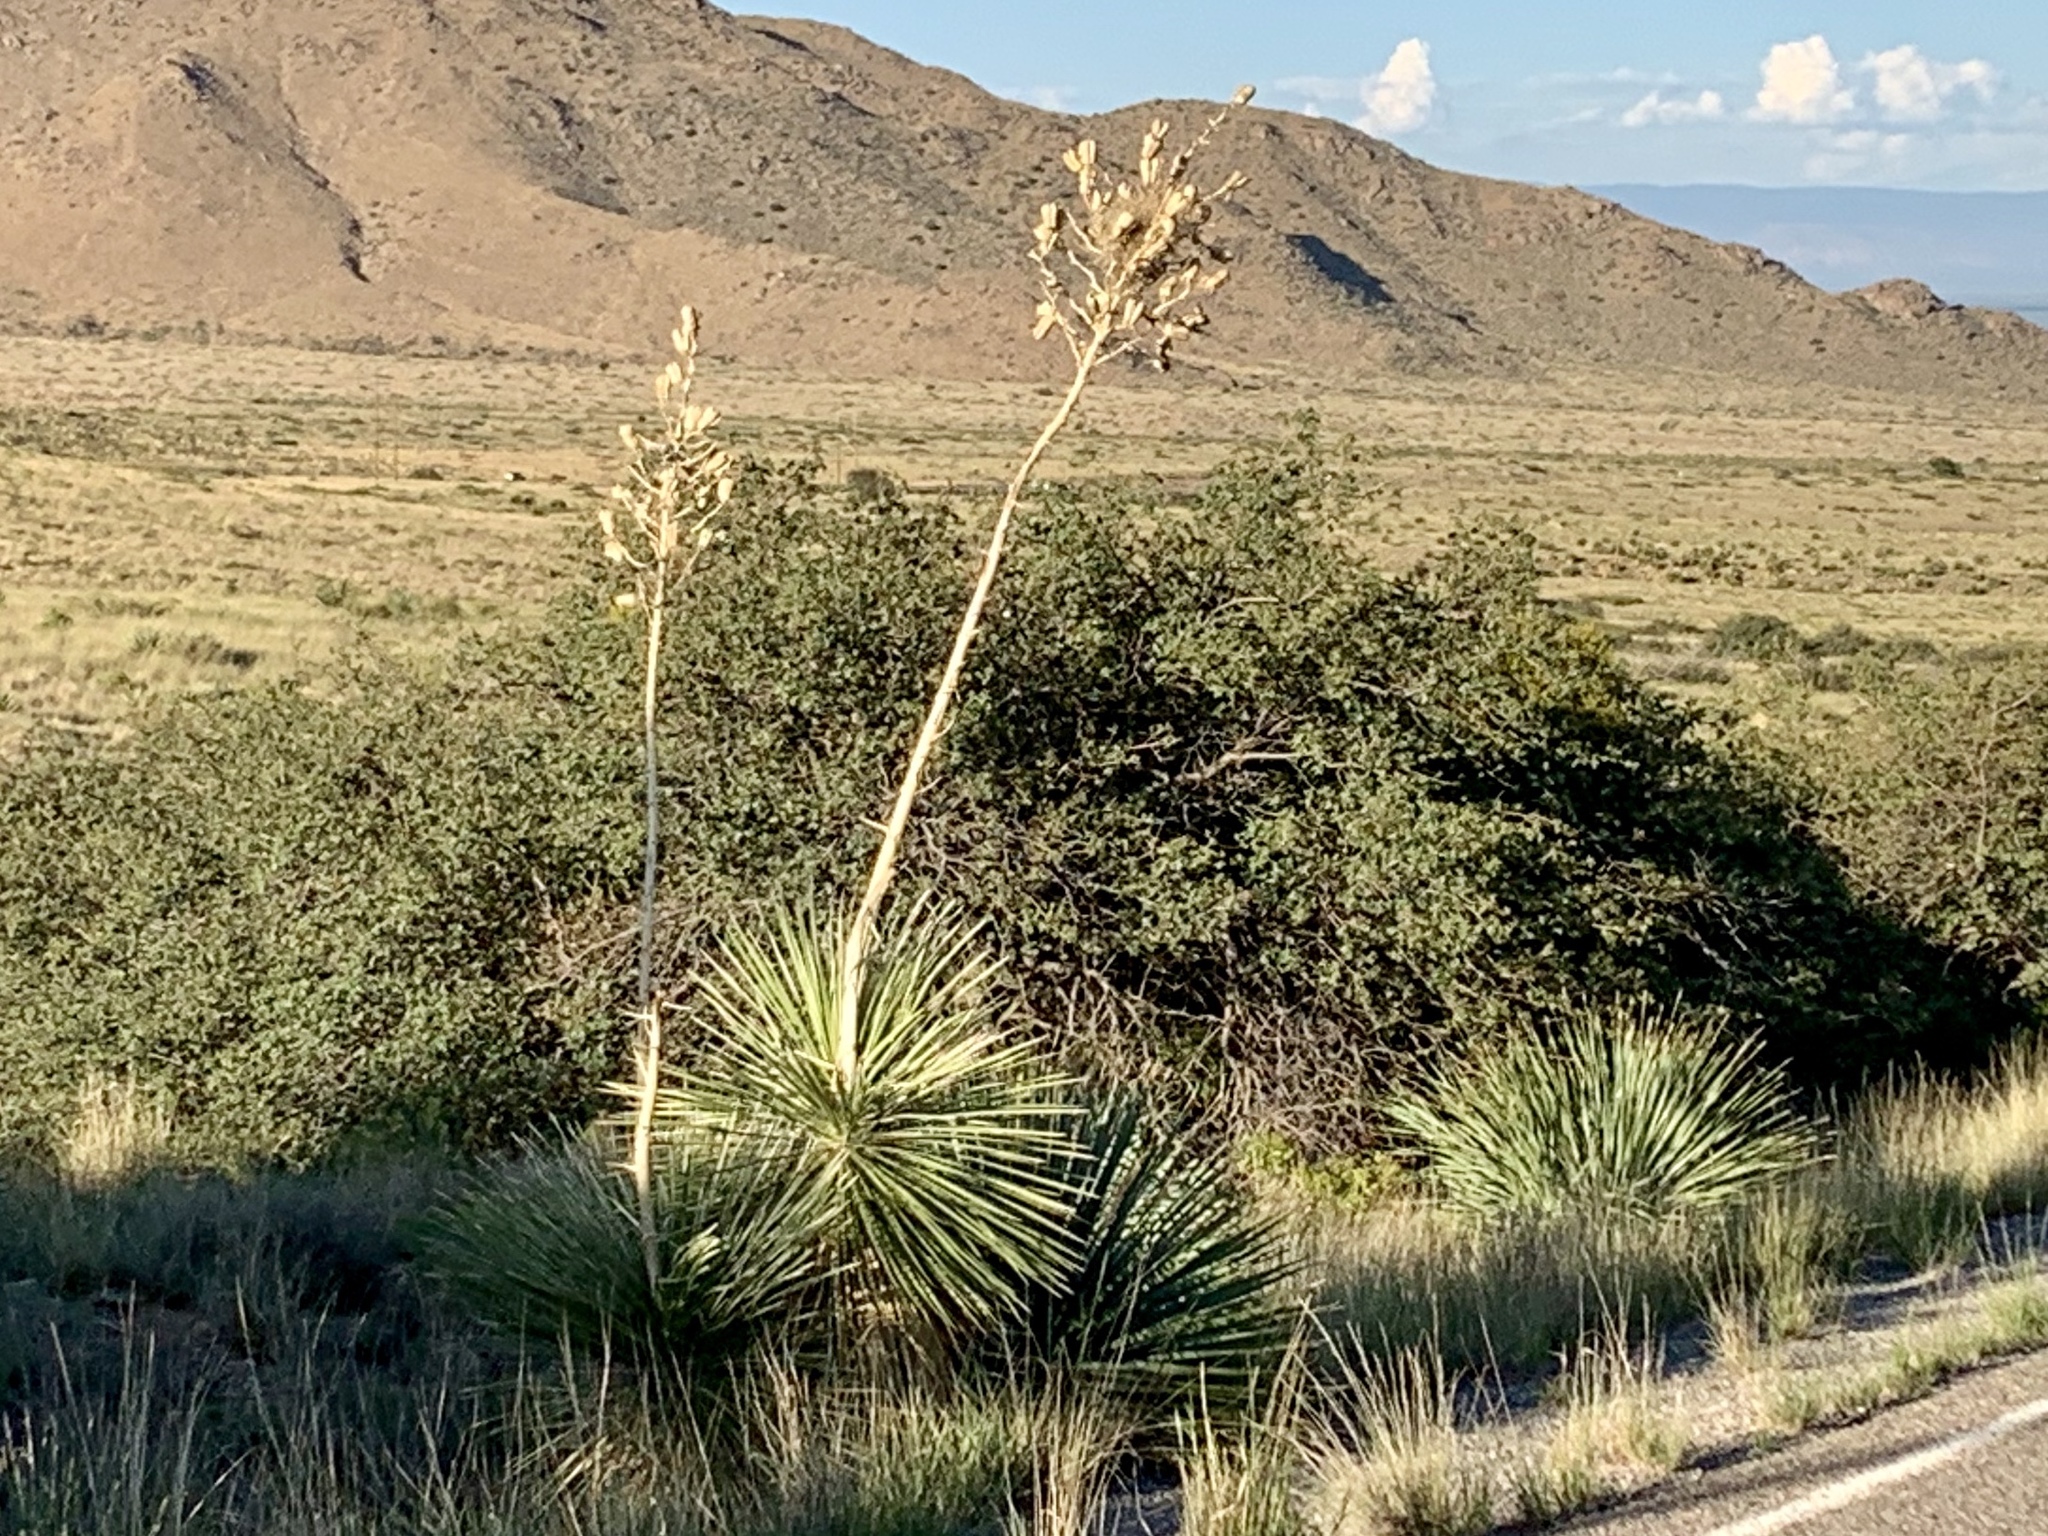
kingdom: Plantae
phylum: Tracheophyta
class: Liliopsida
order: Asparagales
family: Asparagaceae
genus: Yucca
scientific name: Yucca elata
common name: Palmella
